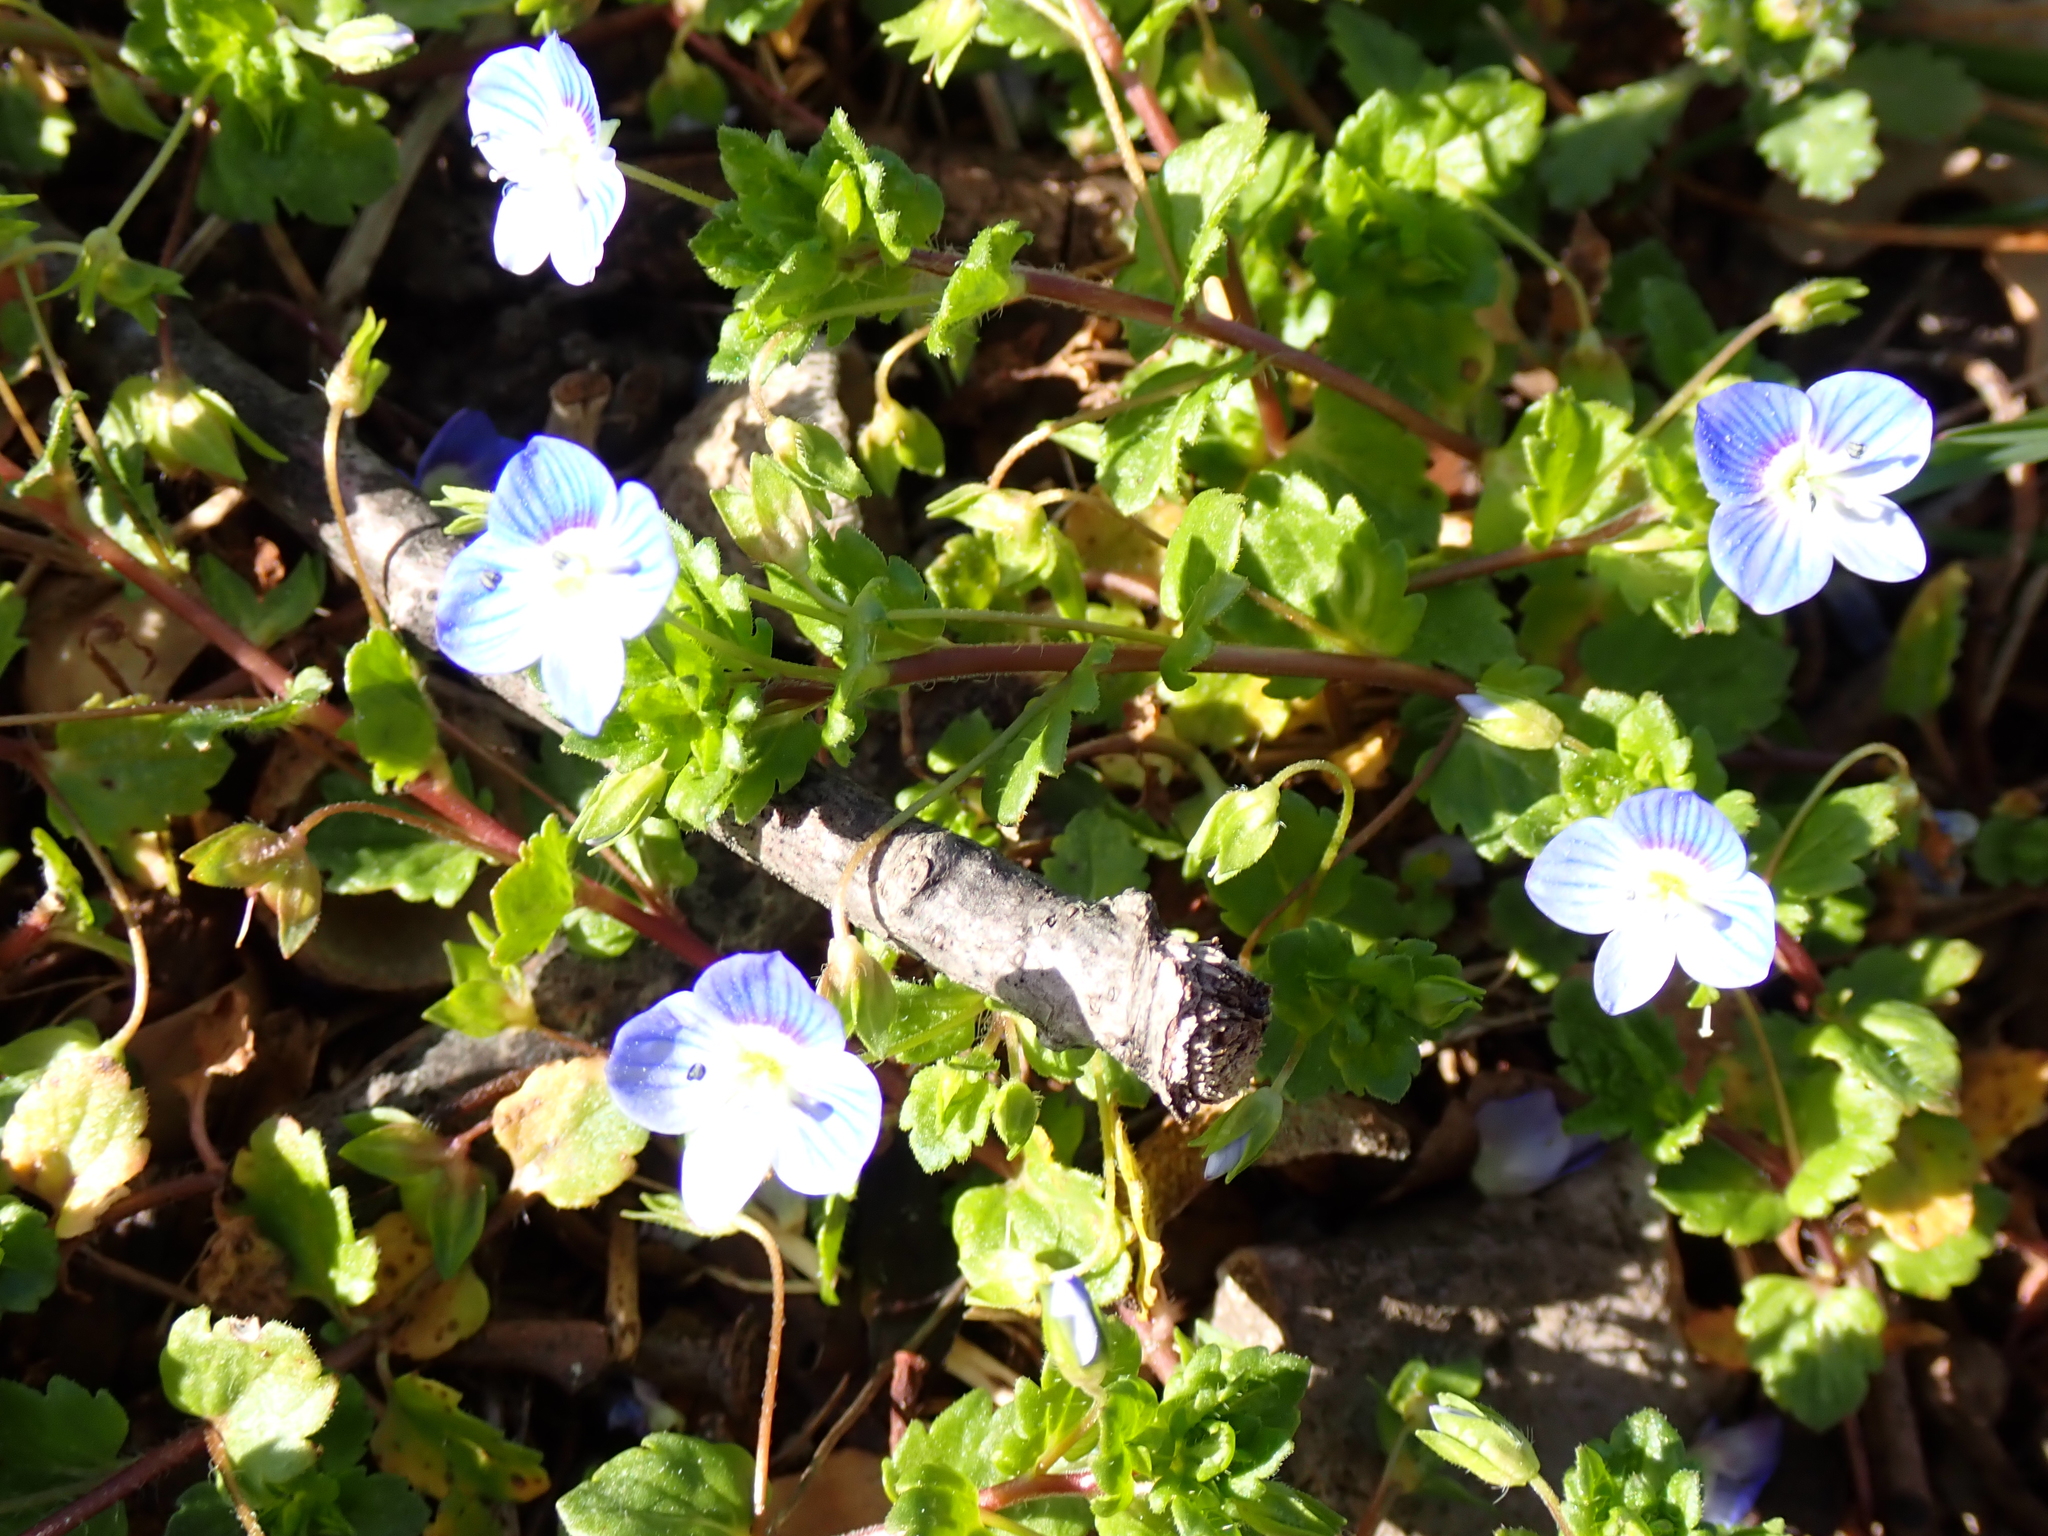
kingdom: Plantae
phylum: Tracheophyta
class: Magnoliopsida
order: Lamiales
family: Plantaginaceae
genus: Veronica
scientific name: Veronica persica
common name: Common field-speedwell
